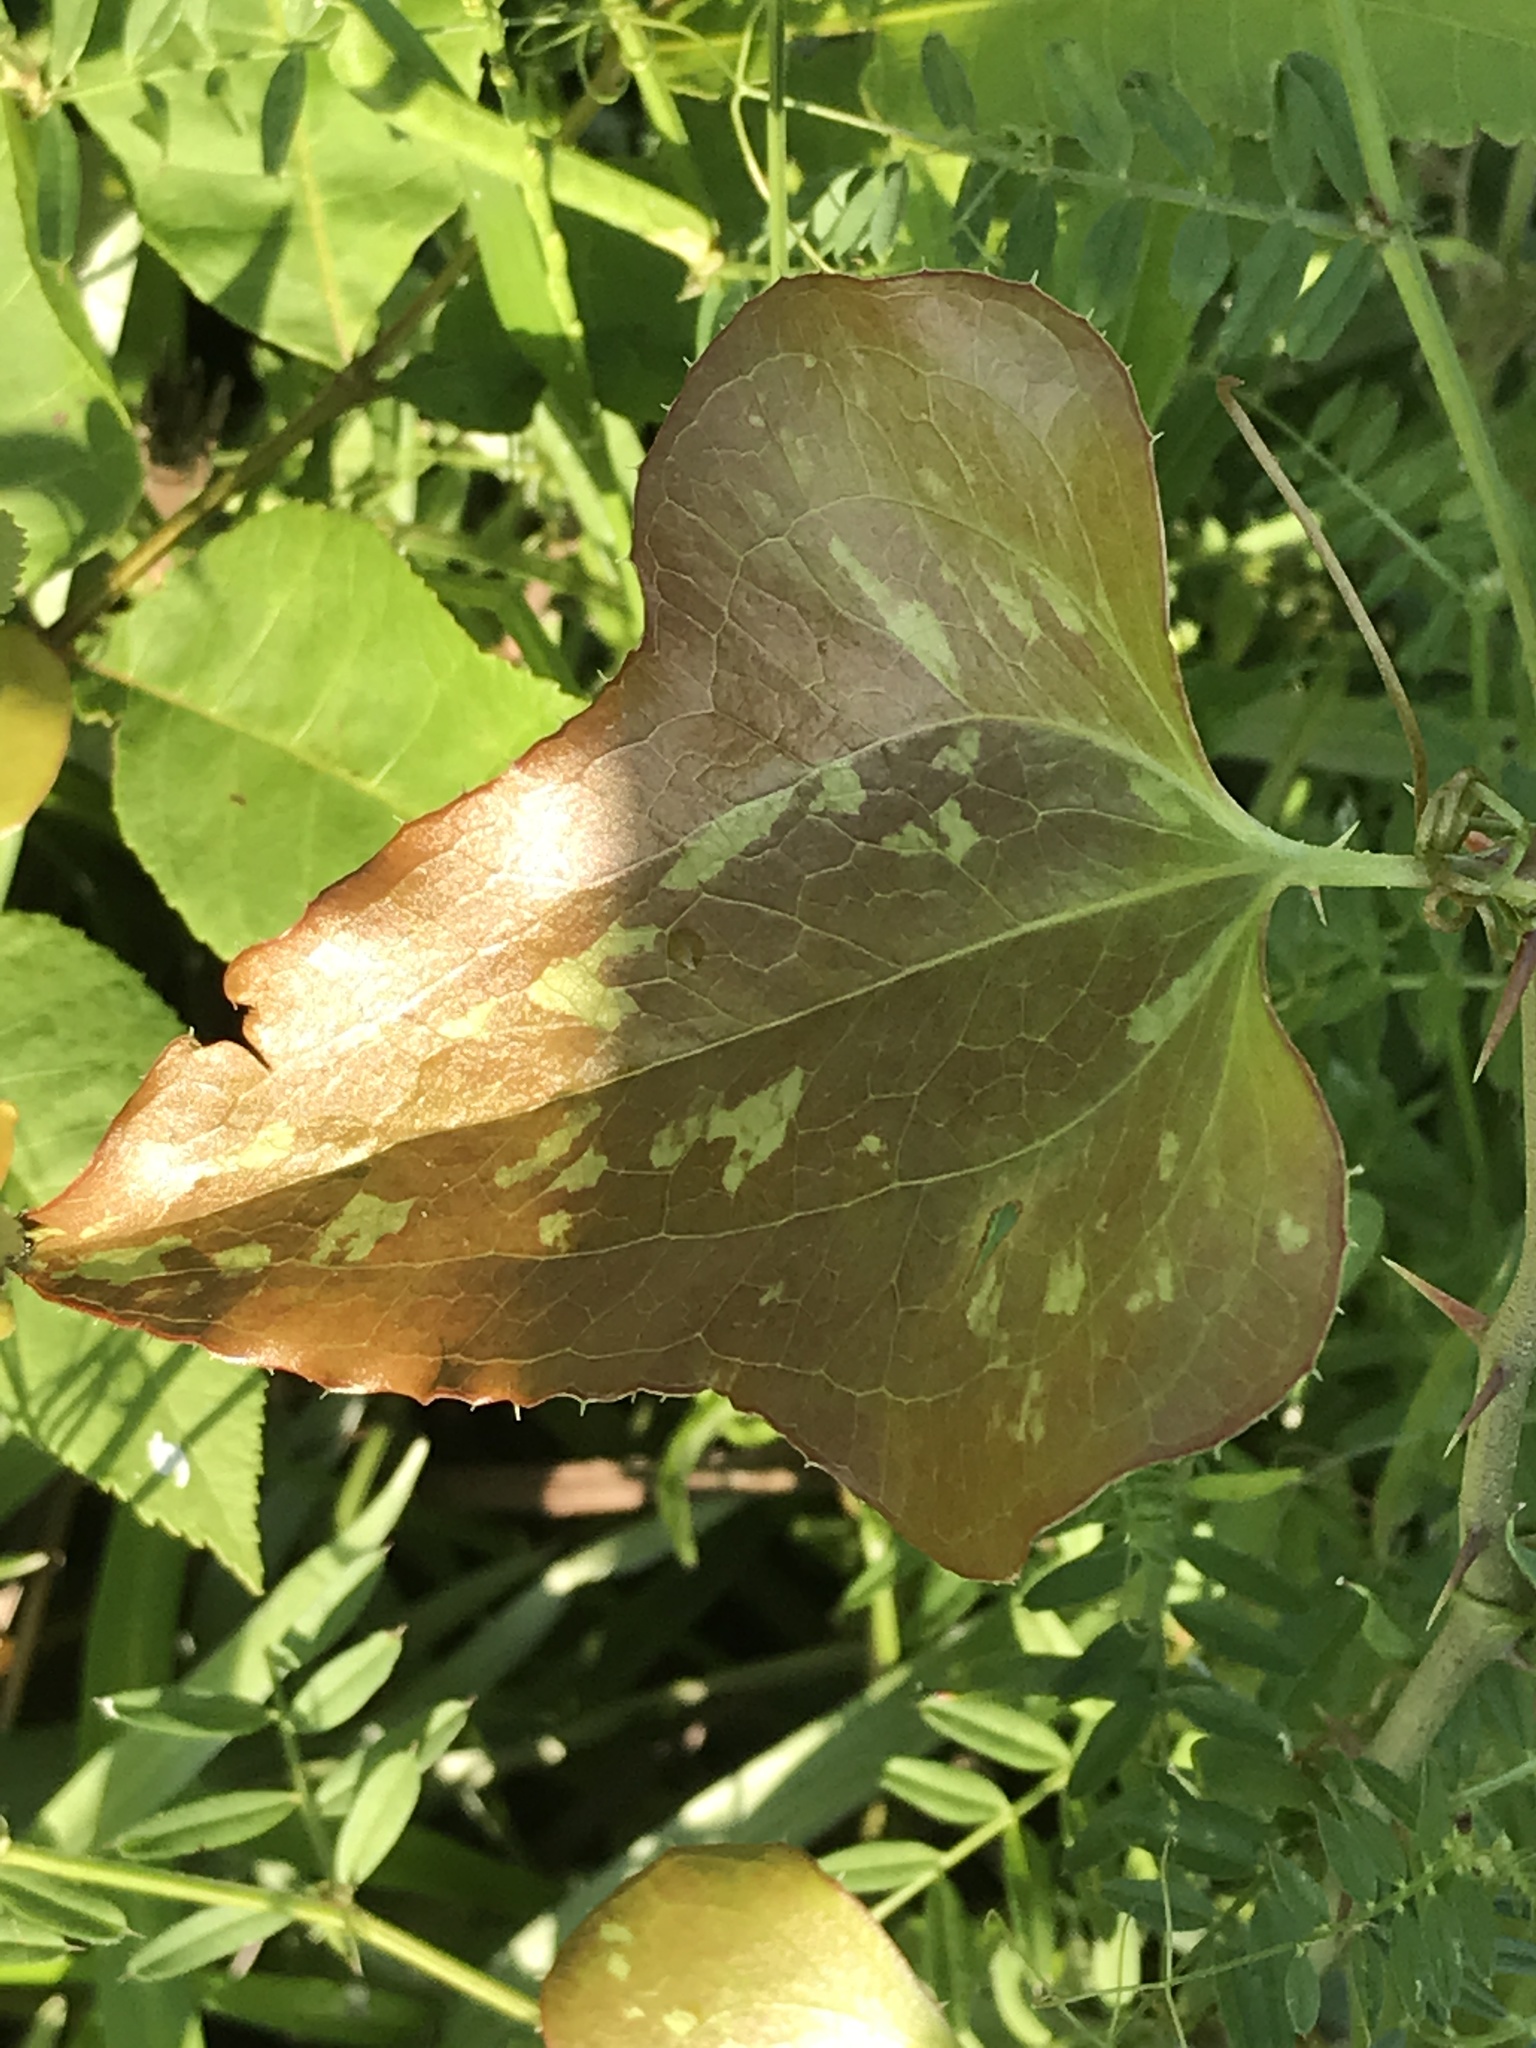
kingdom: Plantae
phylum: Tracheophyta
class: Liliopsida
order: Liliales
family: Smilacaceae
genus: Smilax
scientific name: Smilax bona-nox
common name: Catbrier
